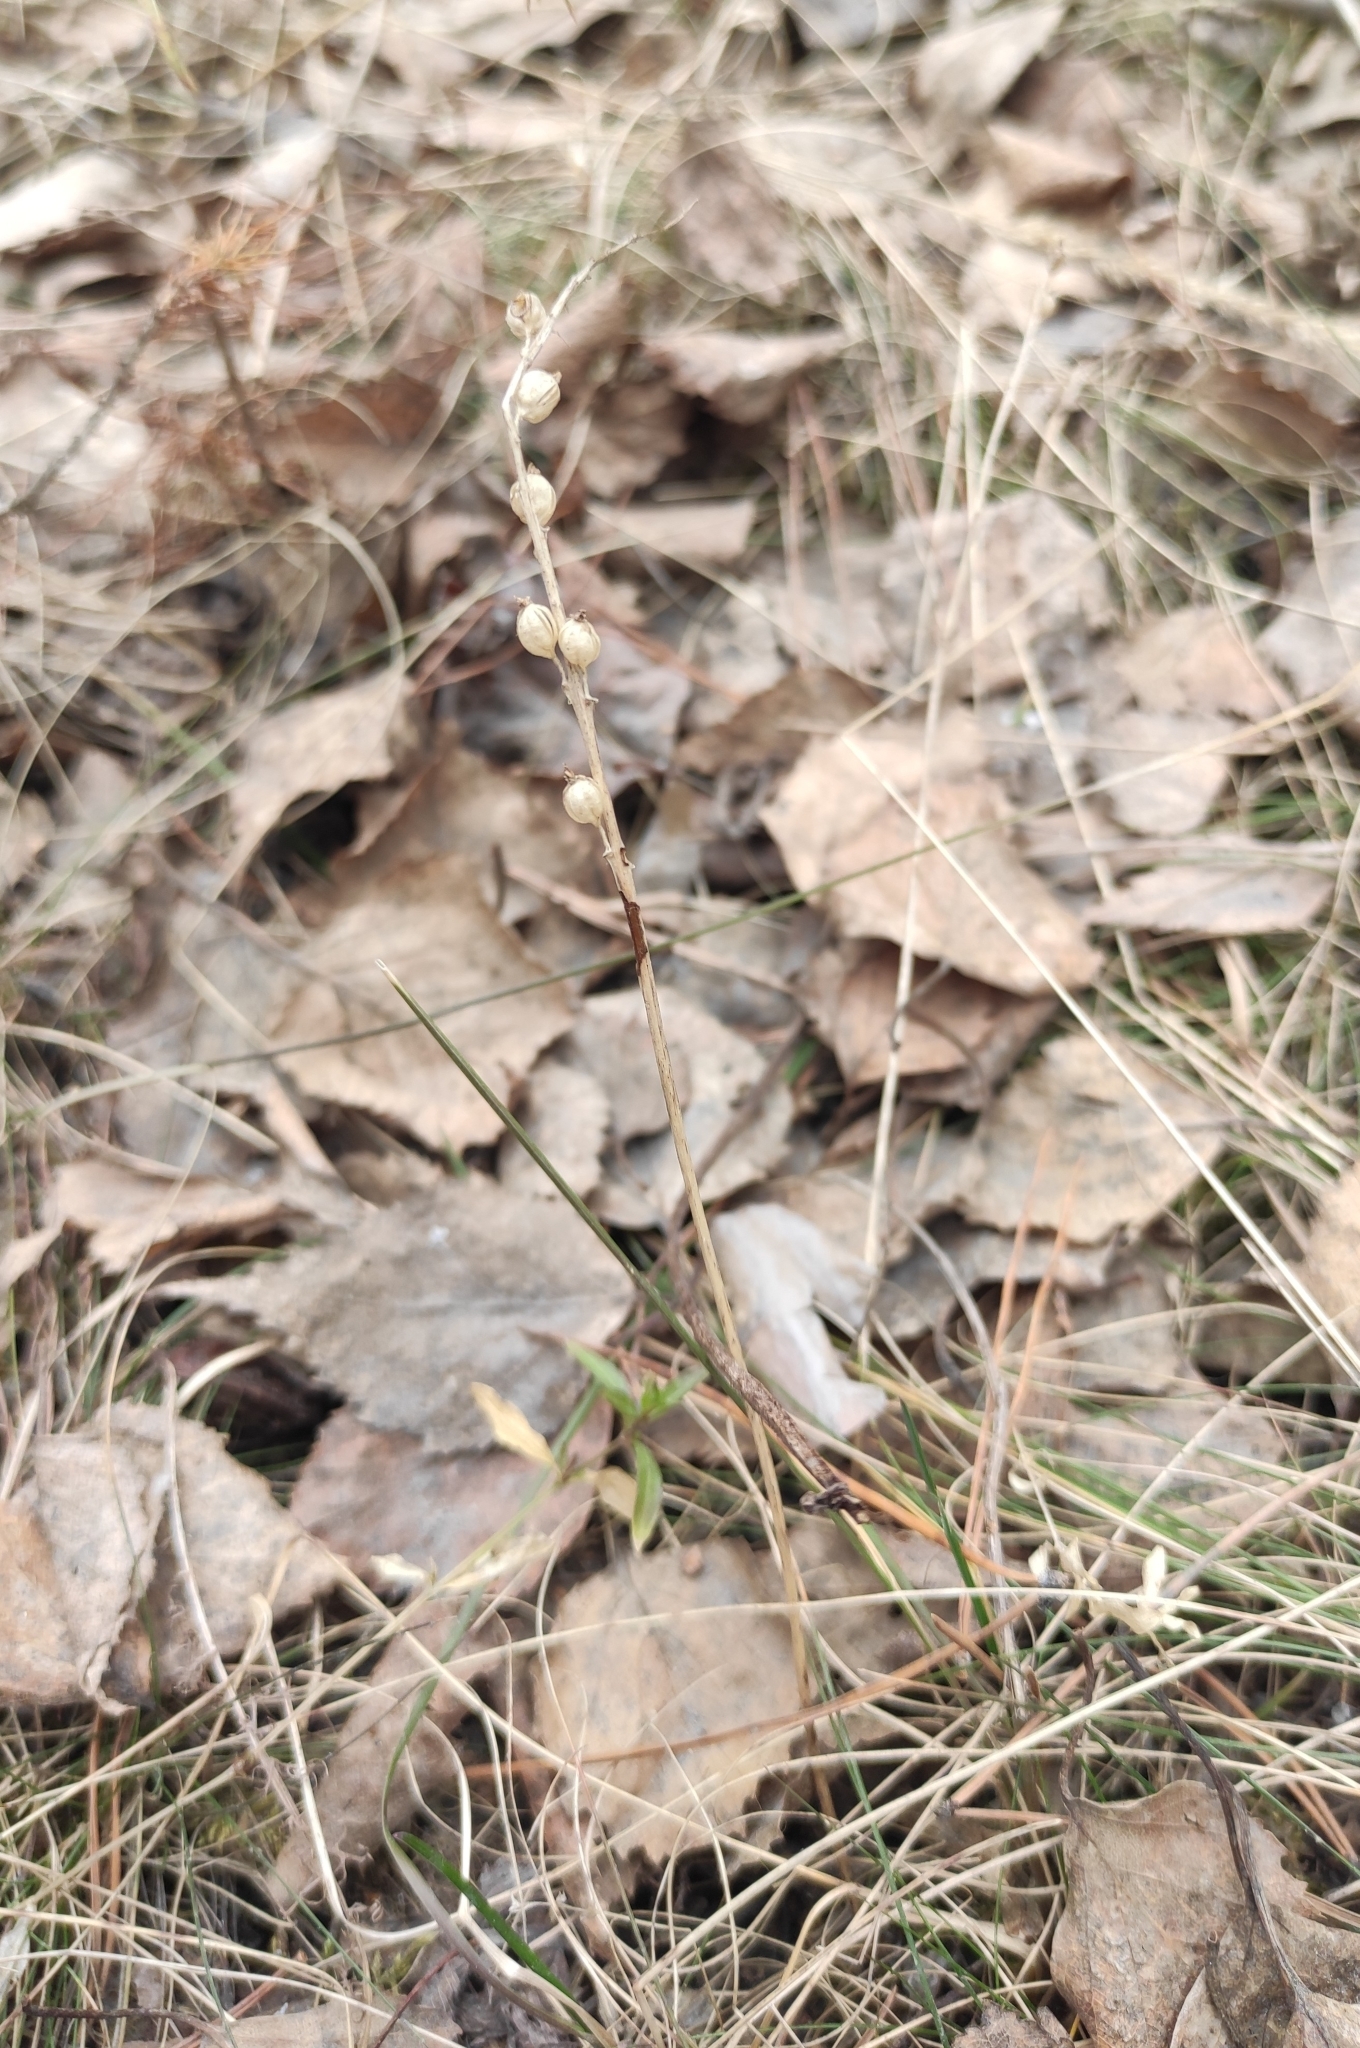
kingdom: Plantae
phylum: Tracheophyta
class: Liliopsida
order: Asparagales
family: Orchidaceae
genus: Malaxis
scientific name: Malaxis monophyllos
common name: White adder's-mouth
